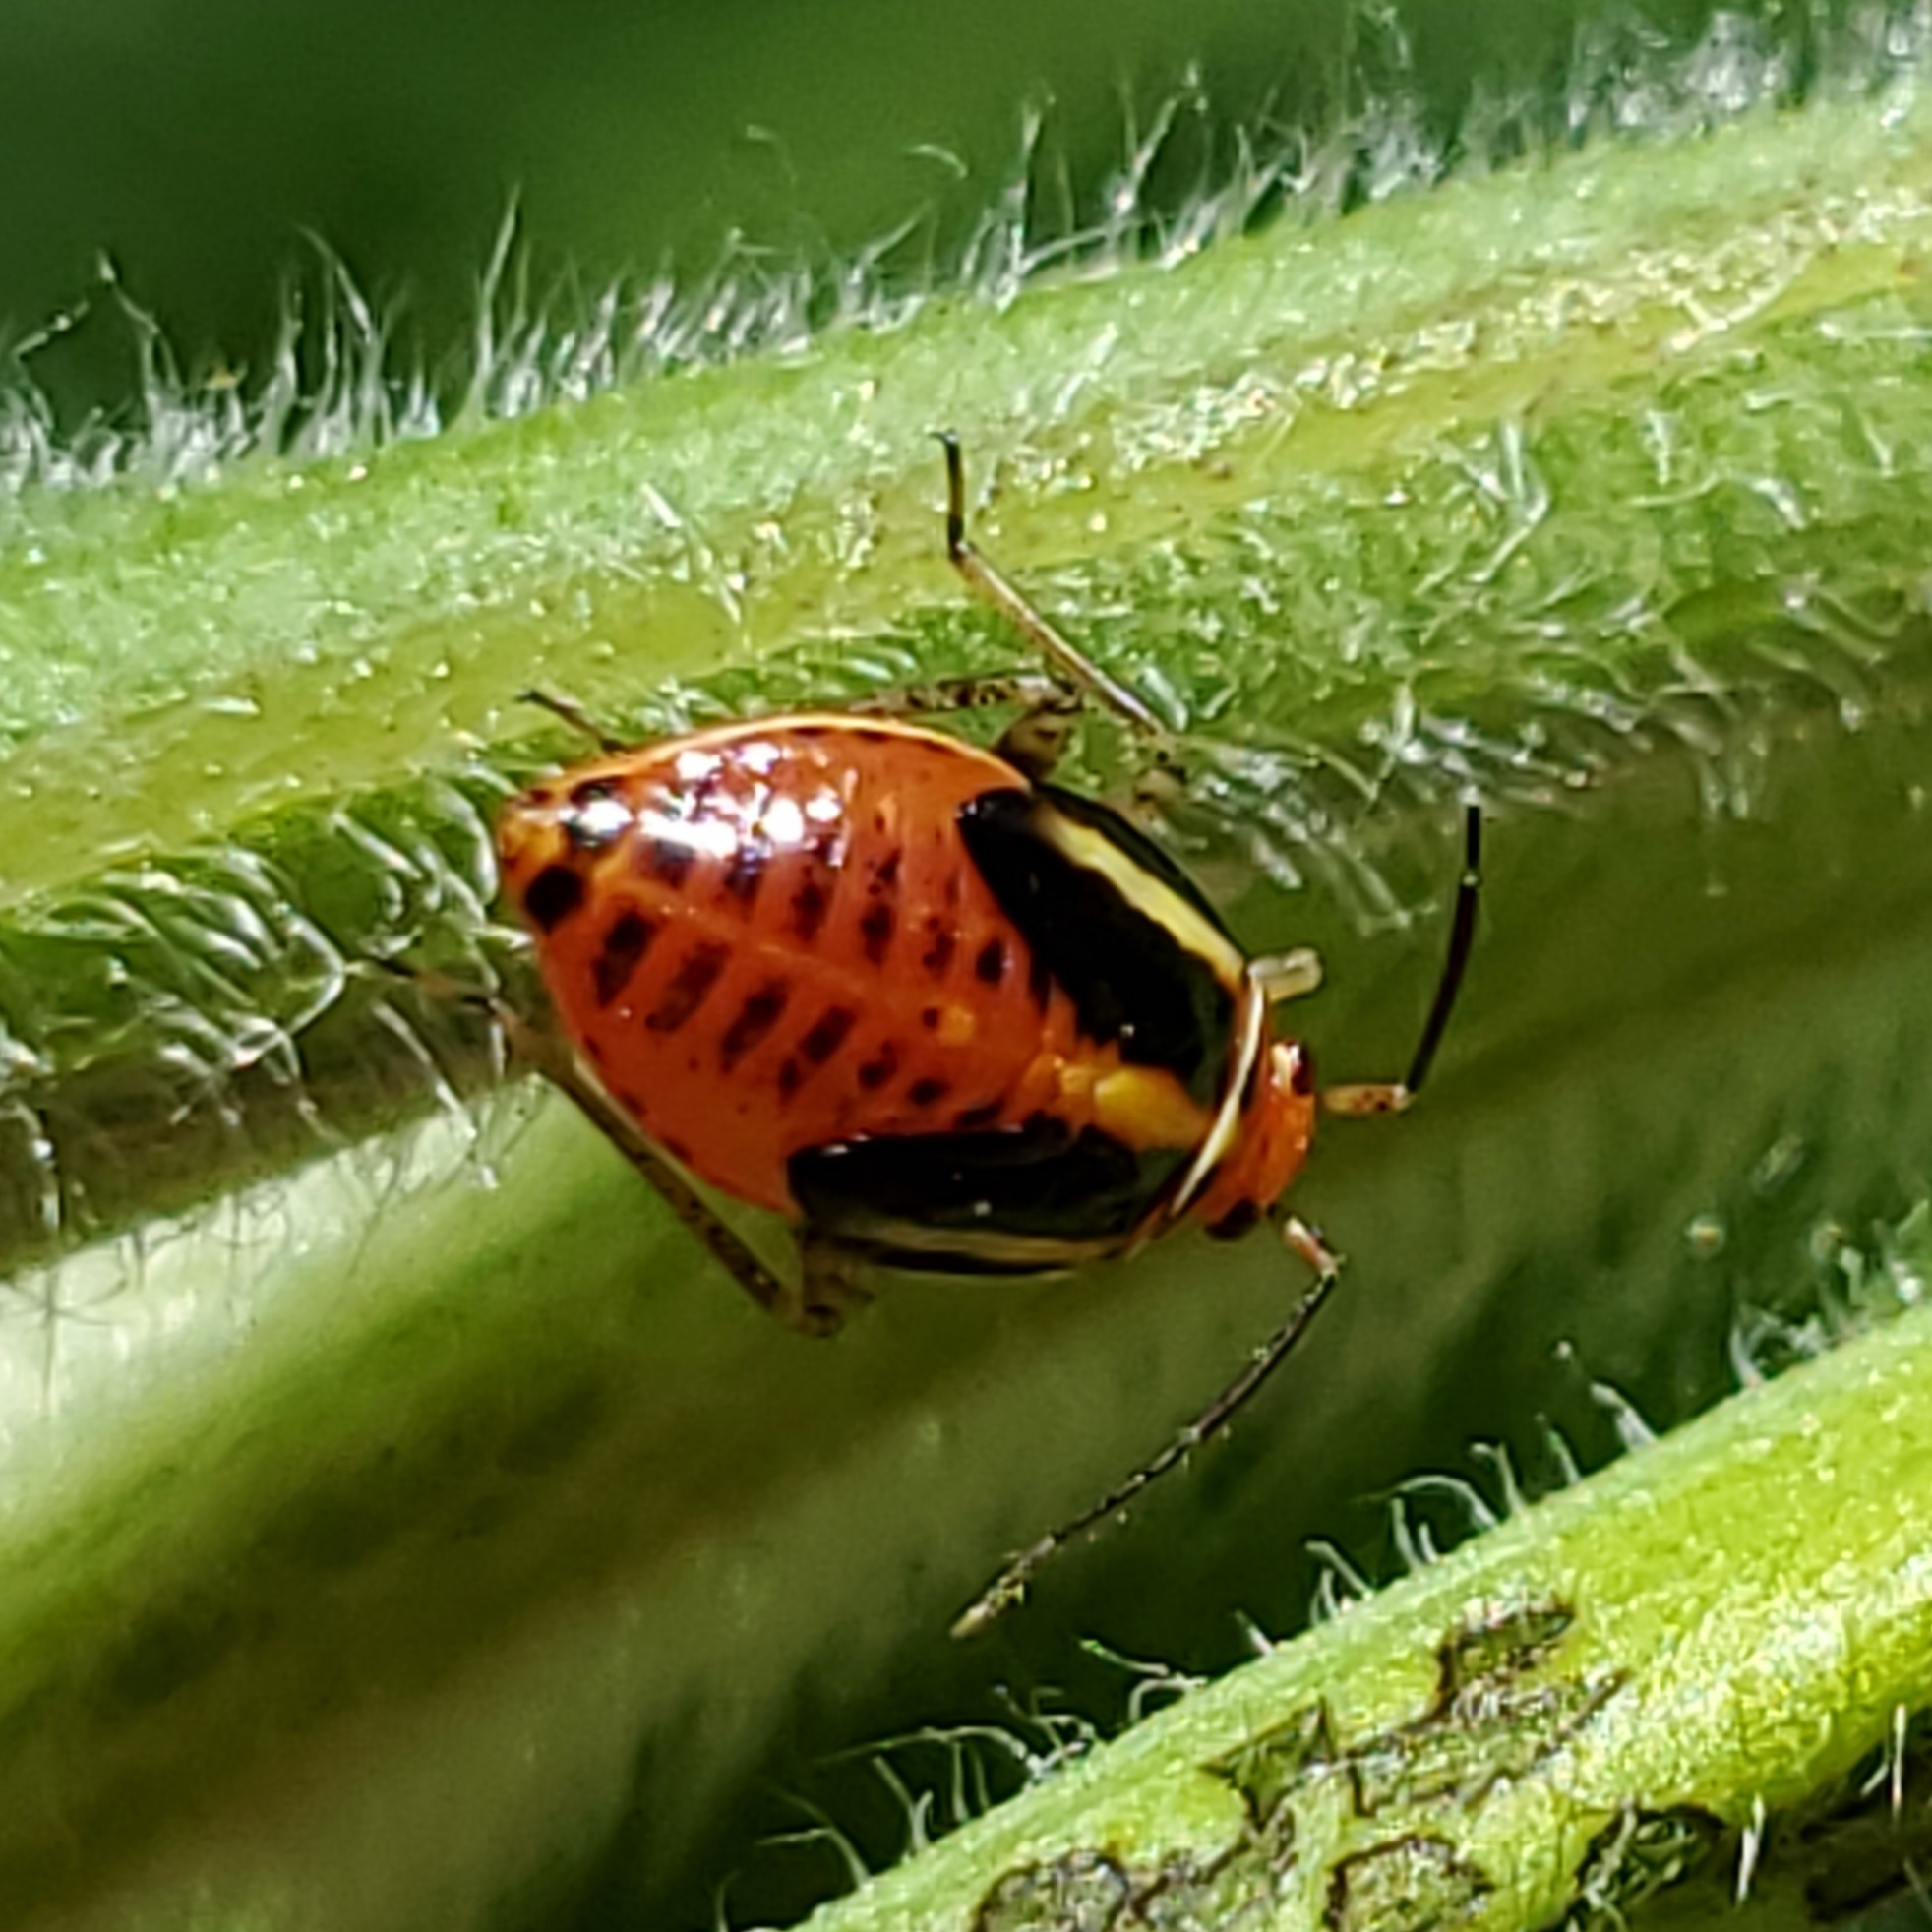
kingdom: Animalia
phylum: Arthropoda
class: Insecta
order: Hemiptera
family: Miridae
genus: Poecilocapsus
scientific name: Poecilocapsus lineatus
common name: Four-lined plant bug
